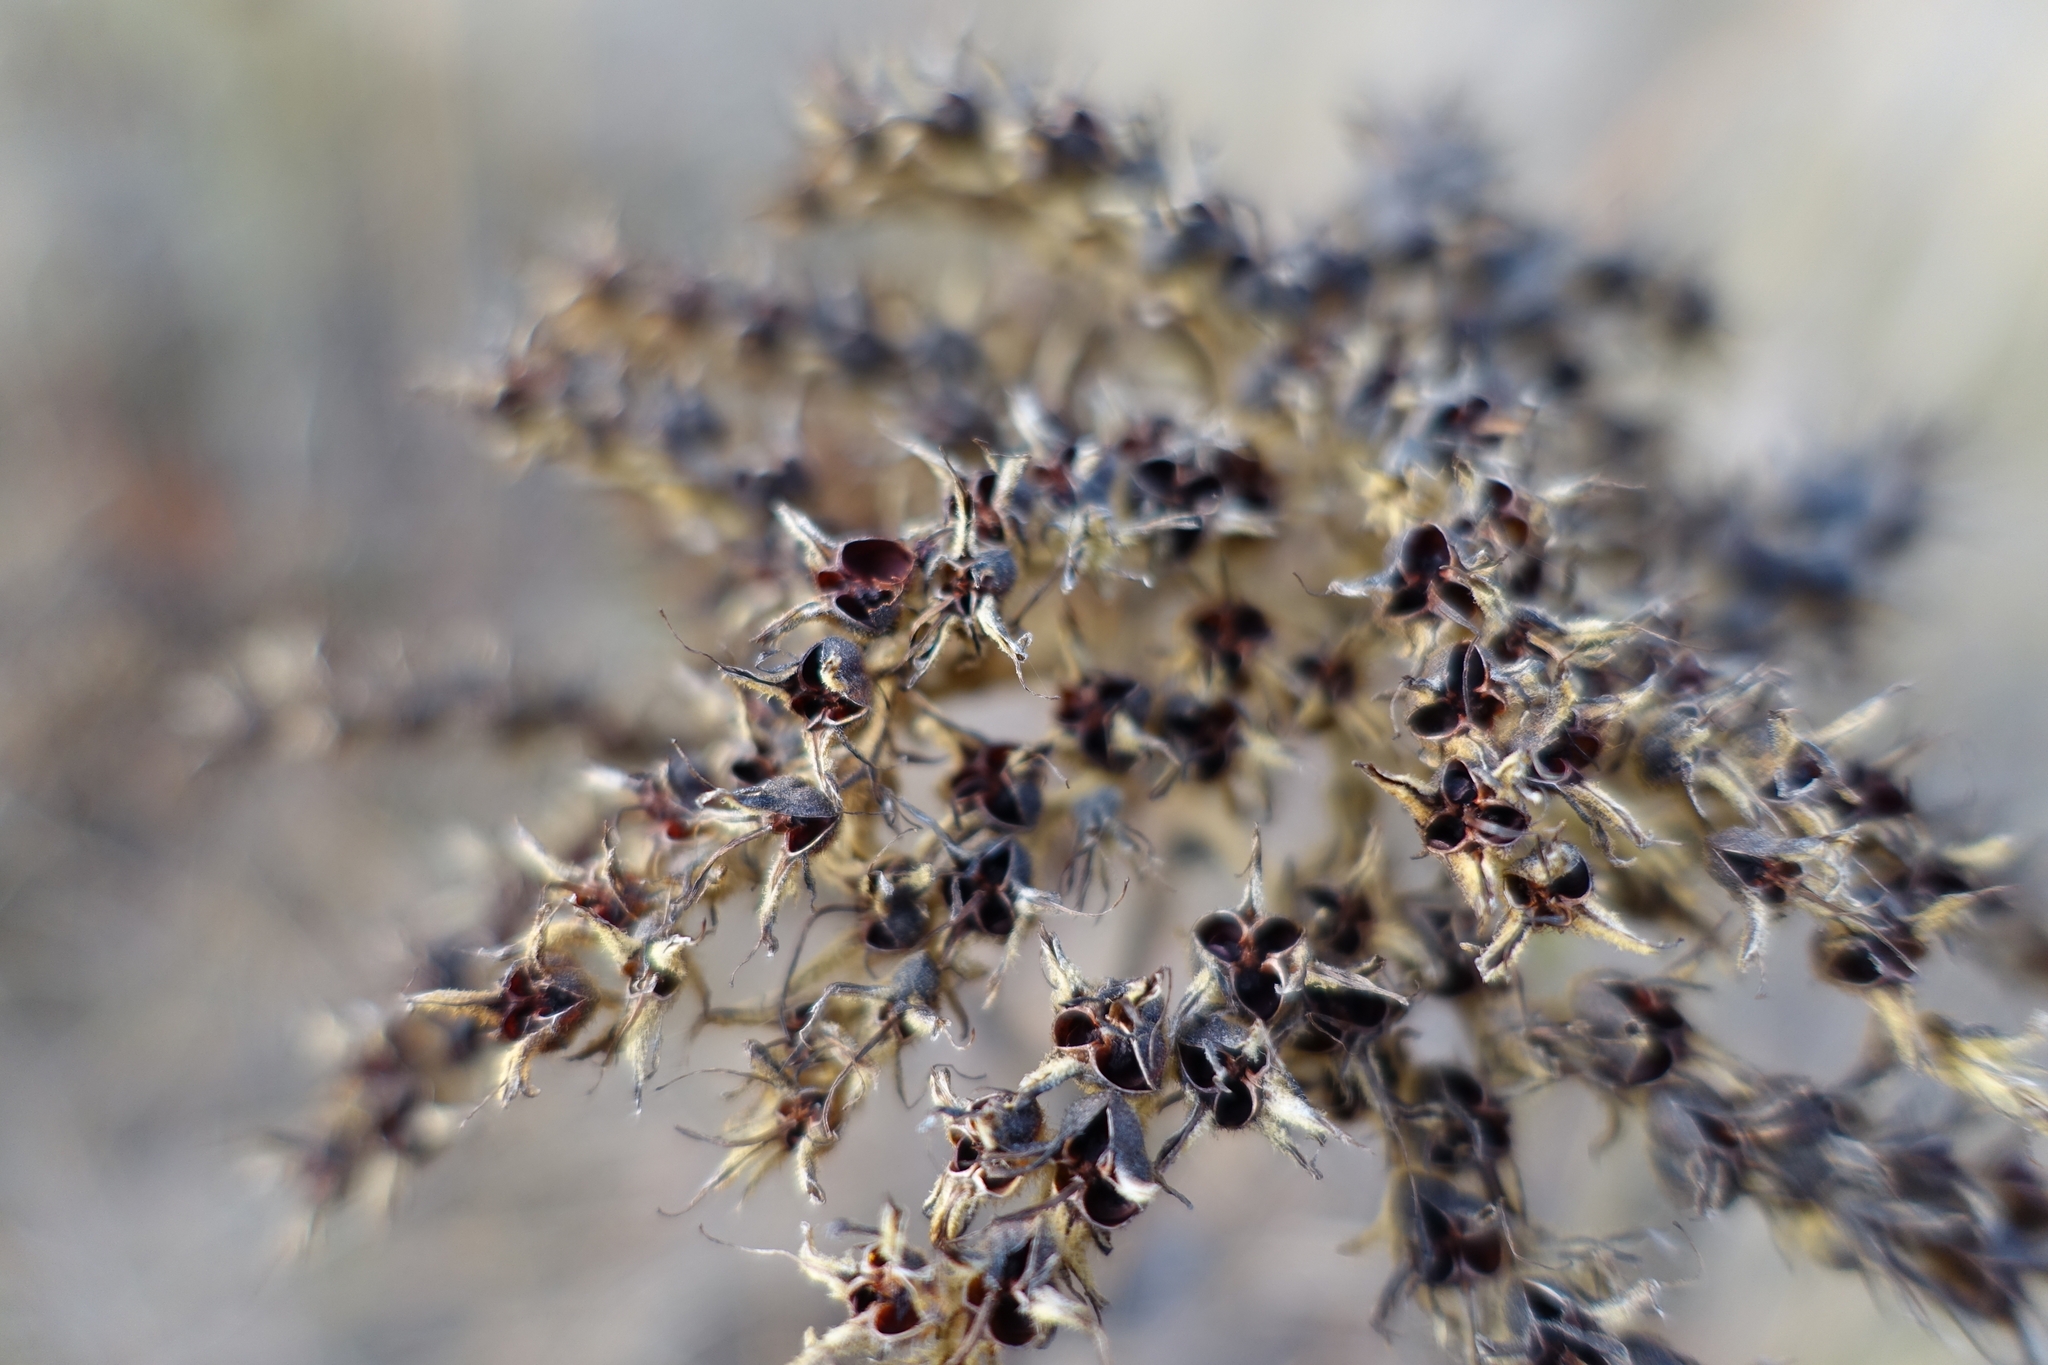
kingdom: Plantae
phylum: Tracheophyta
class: Liliopsida
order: Commelinales
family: Haemodoraceae
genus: Lachnanthes
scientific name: Lachnanthes caroliana
